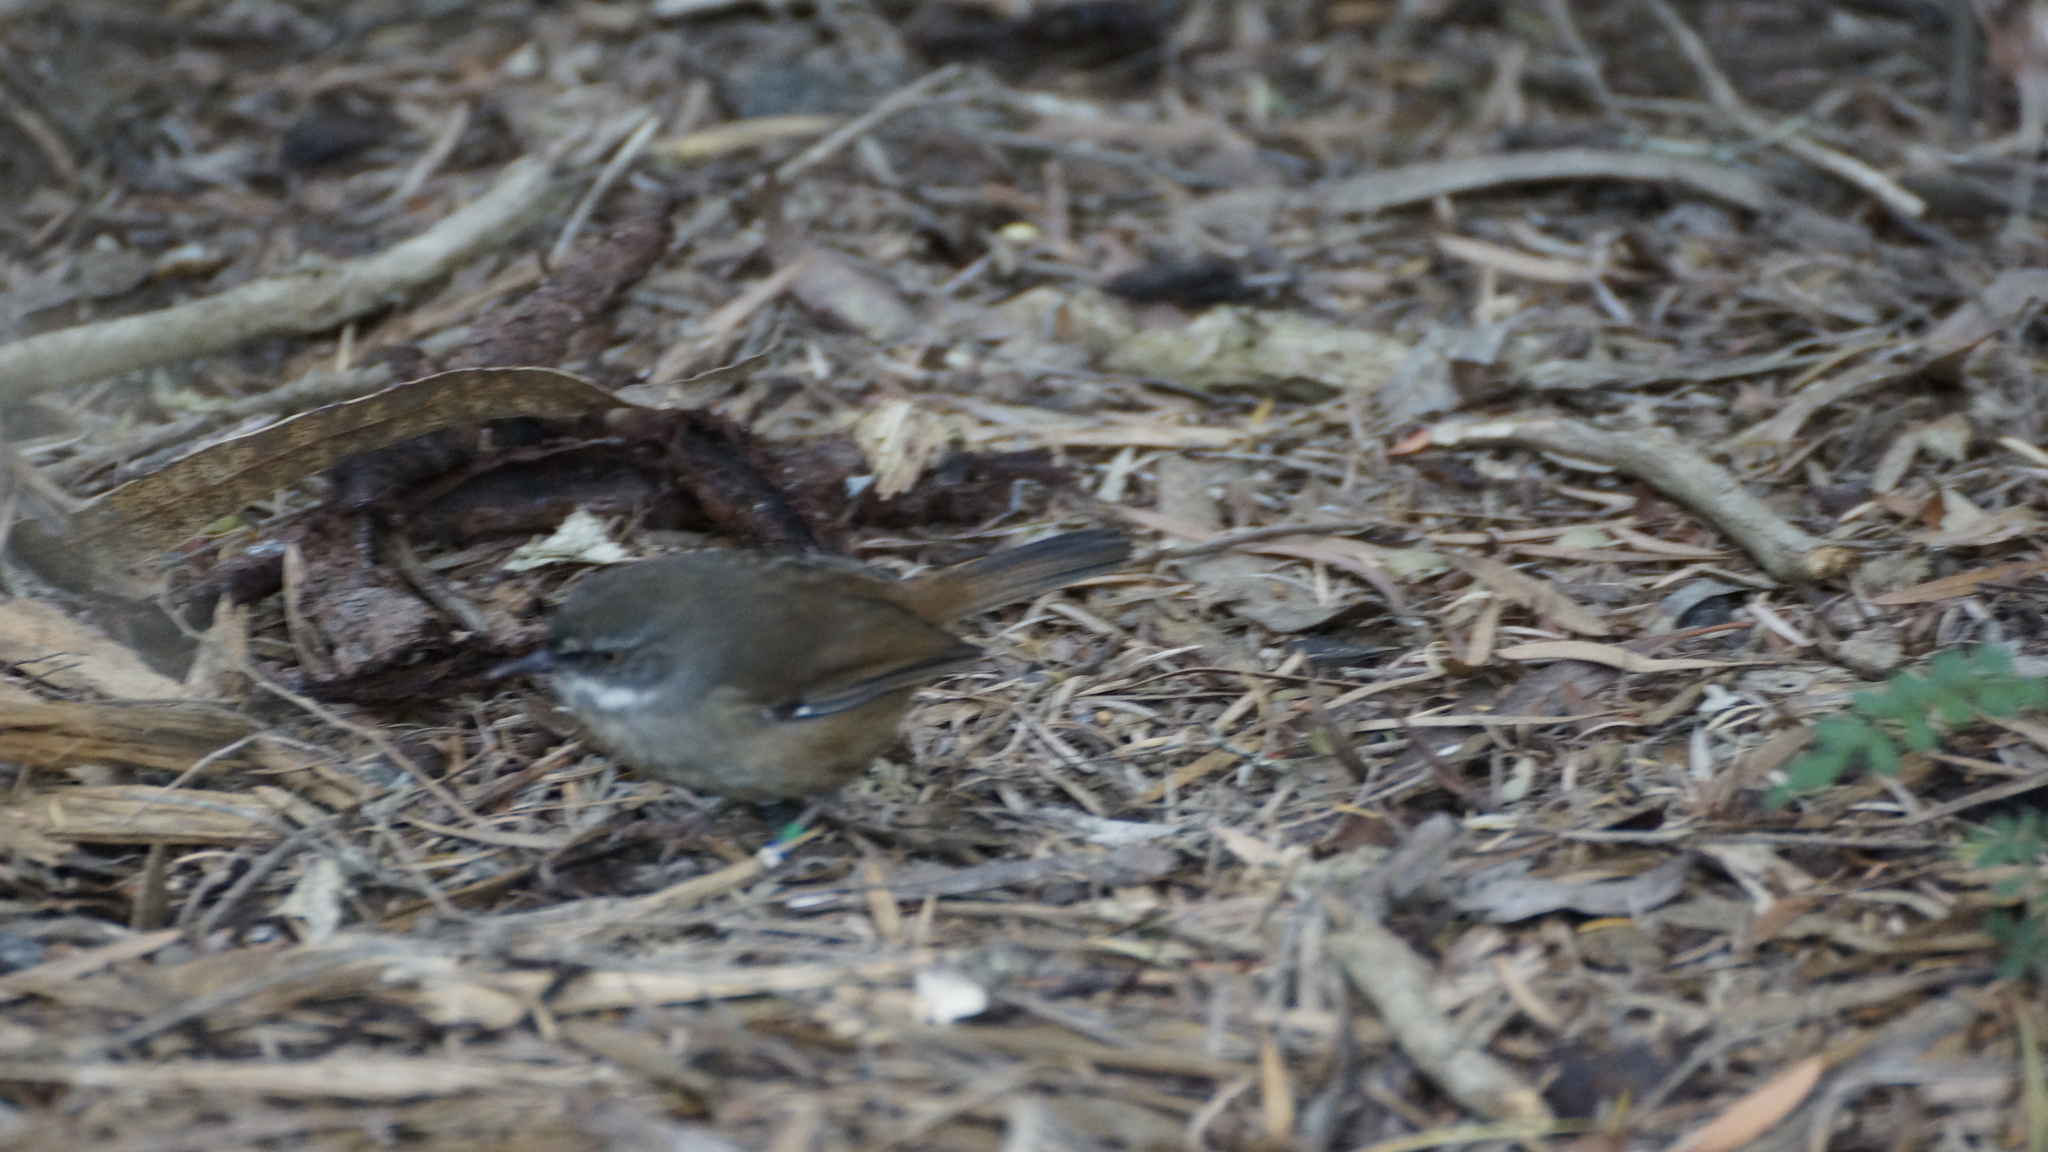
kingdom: Animalia
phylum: Chordata
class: Aves
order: Passeriformes
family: Acanthizidae
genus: Sericornis
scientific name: Sericornis frontalis
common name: White-browed scrubwren
